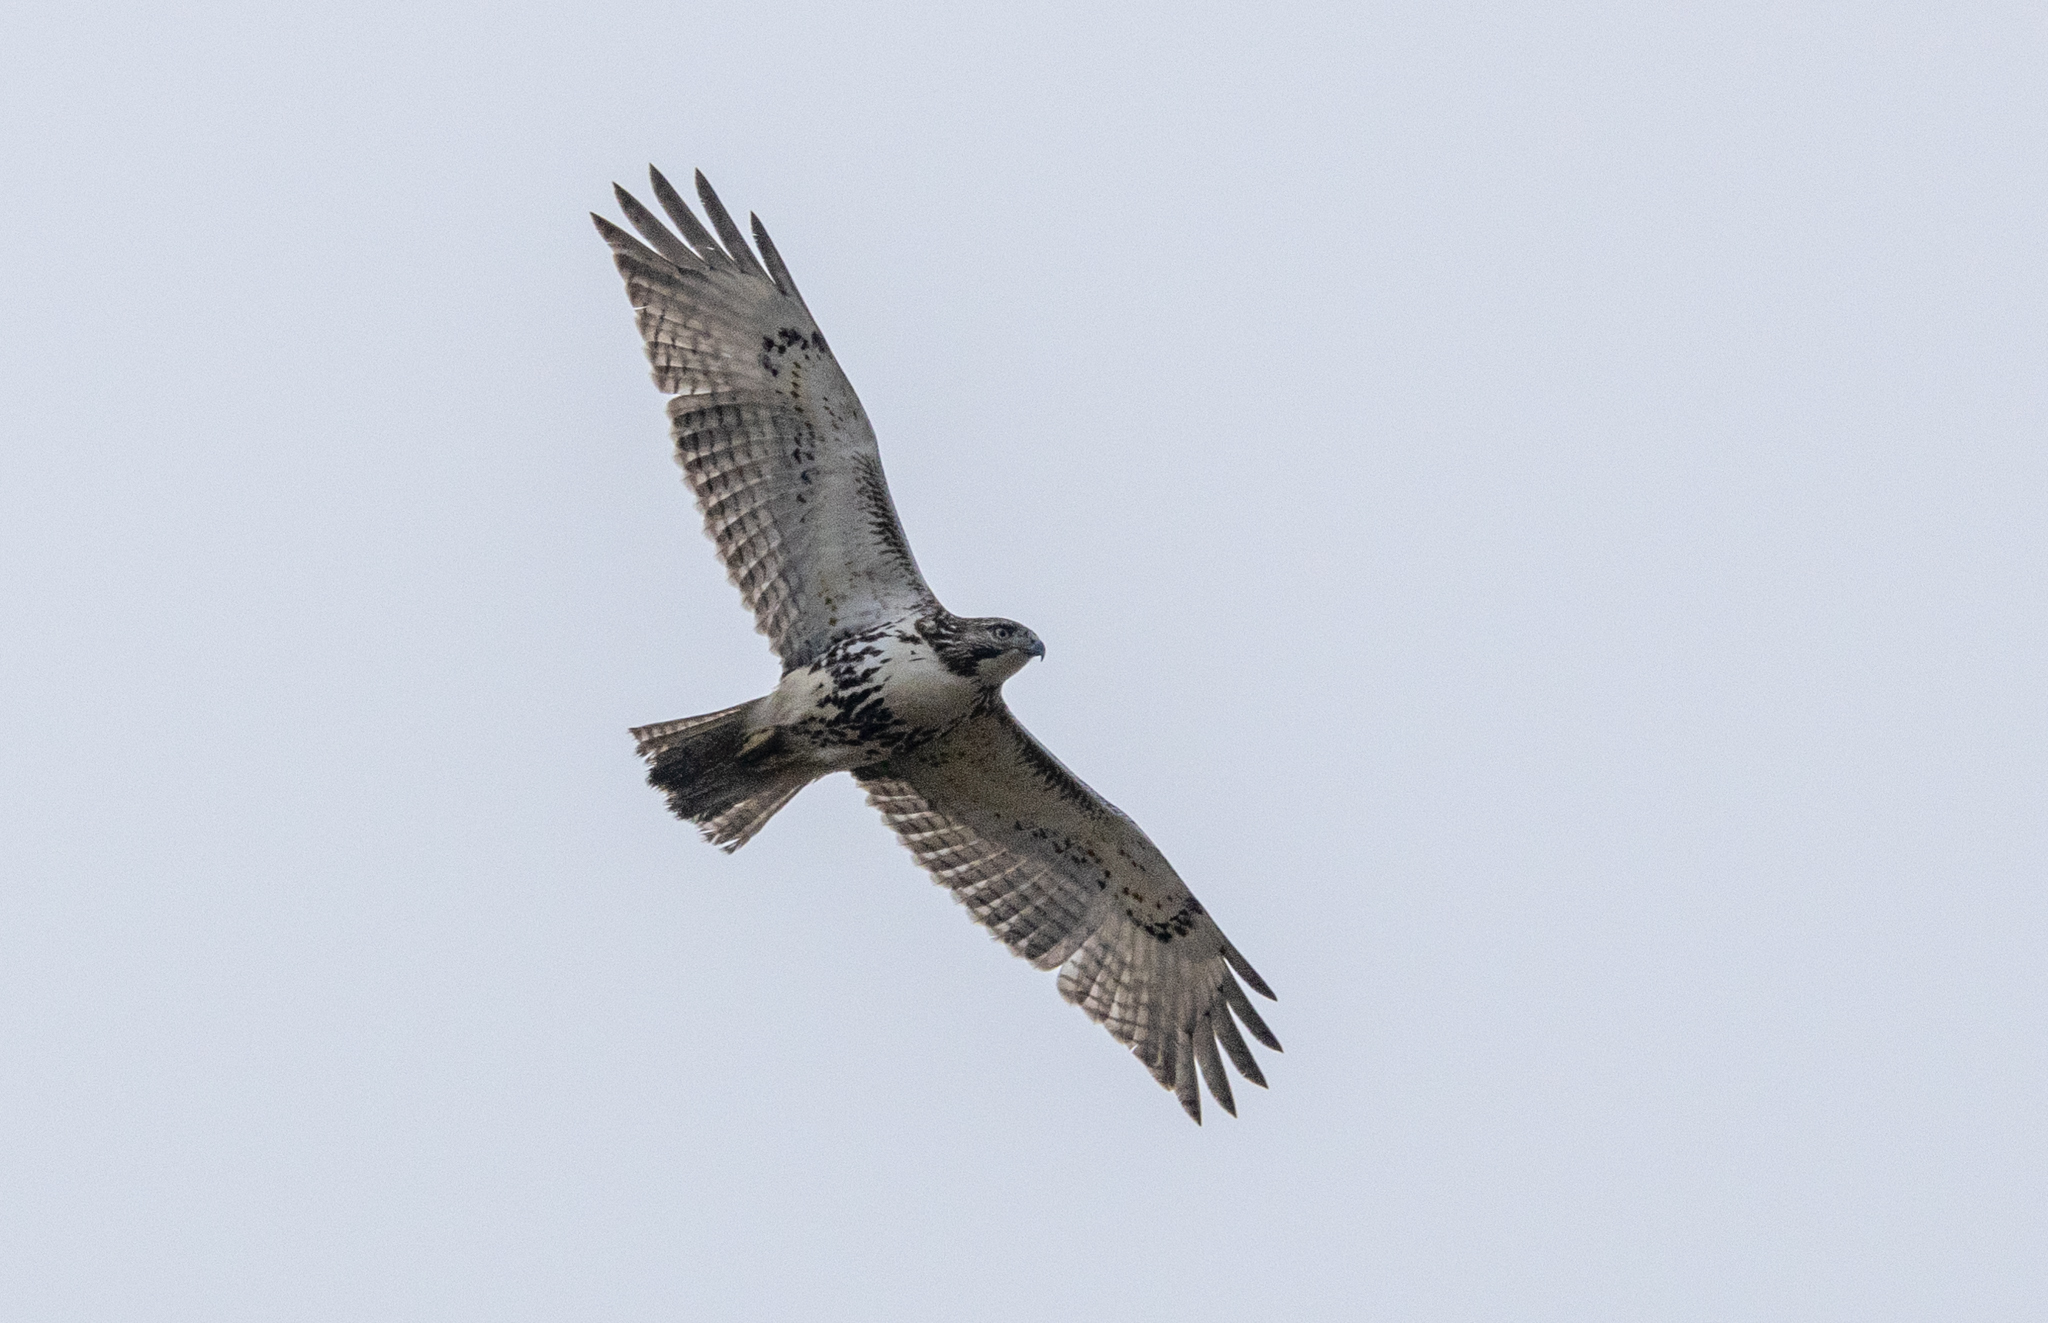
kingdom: Animalia
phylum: Chordata
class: Aves
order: Accipitriformes
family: Accipitridae
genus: Buteo
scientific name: Buteo jamaicensis
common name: Red-tailed hawk
